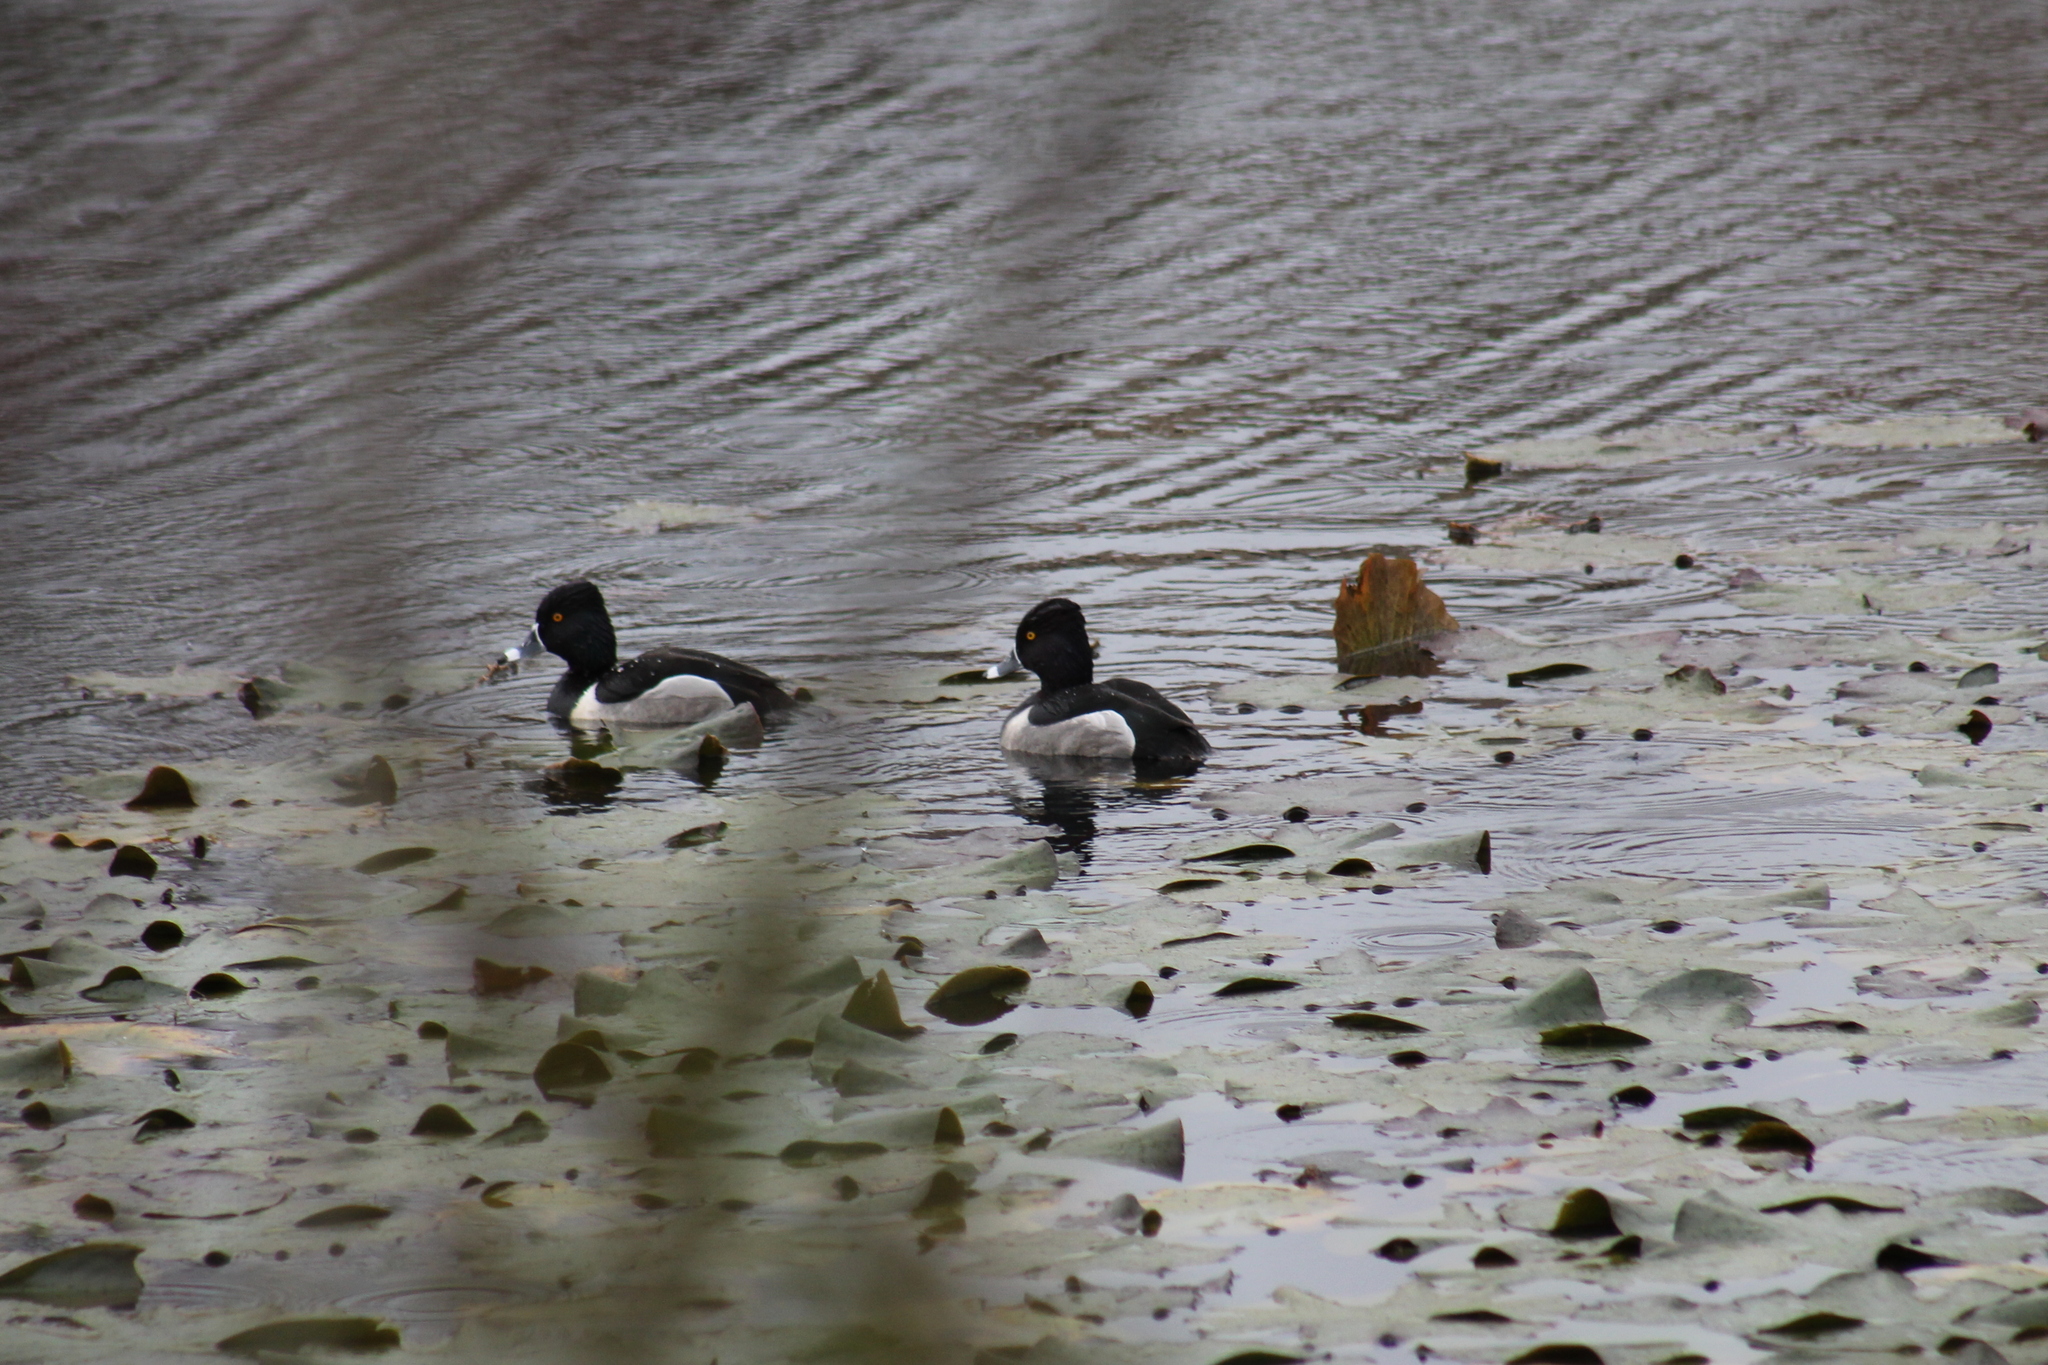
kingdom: Animalia
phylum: Chordata
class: Aves
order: Anseriformes
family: Anatidae
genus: Aythya
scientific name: Aythya collaris
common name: Ring-necked duck
